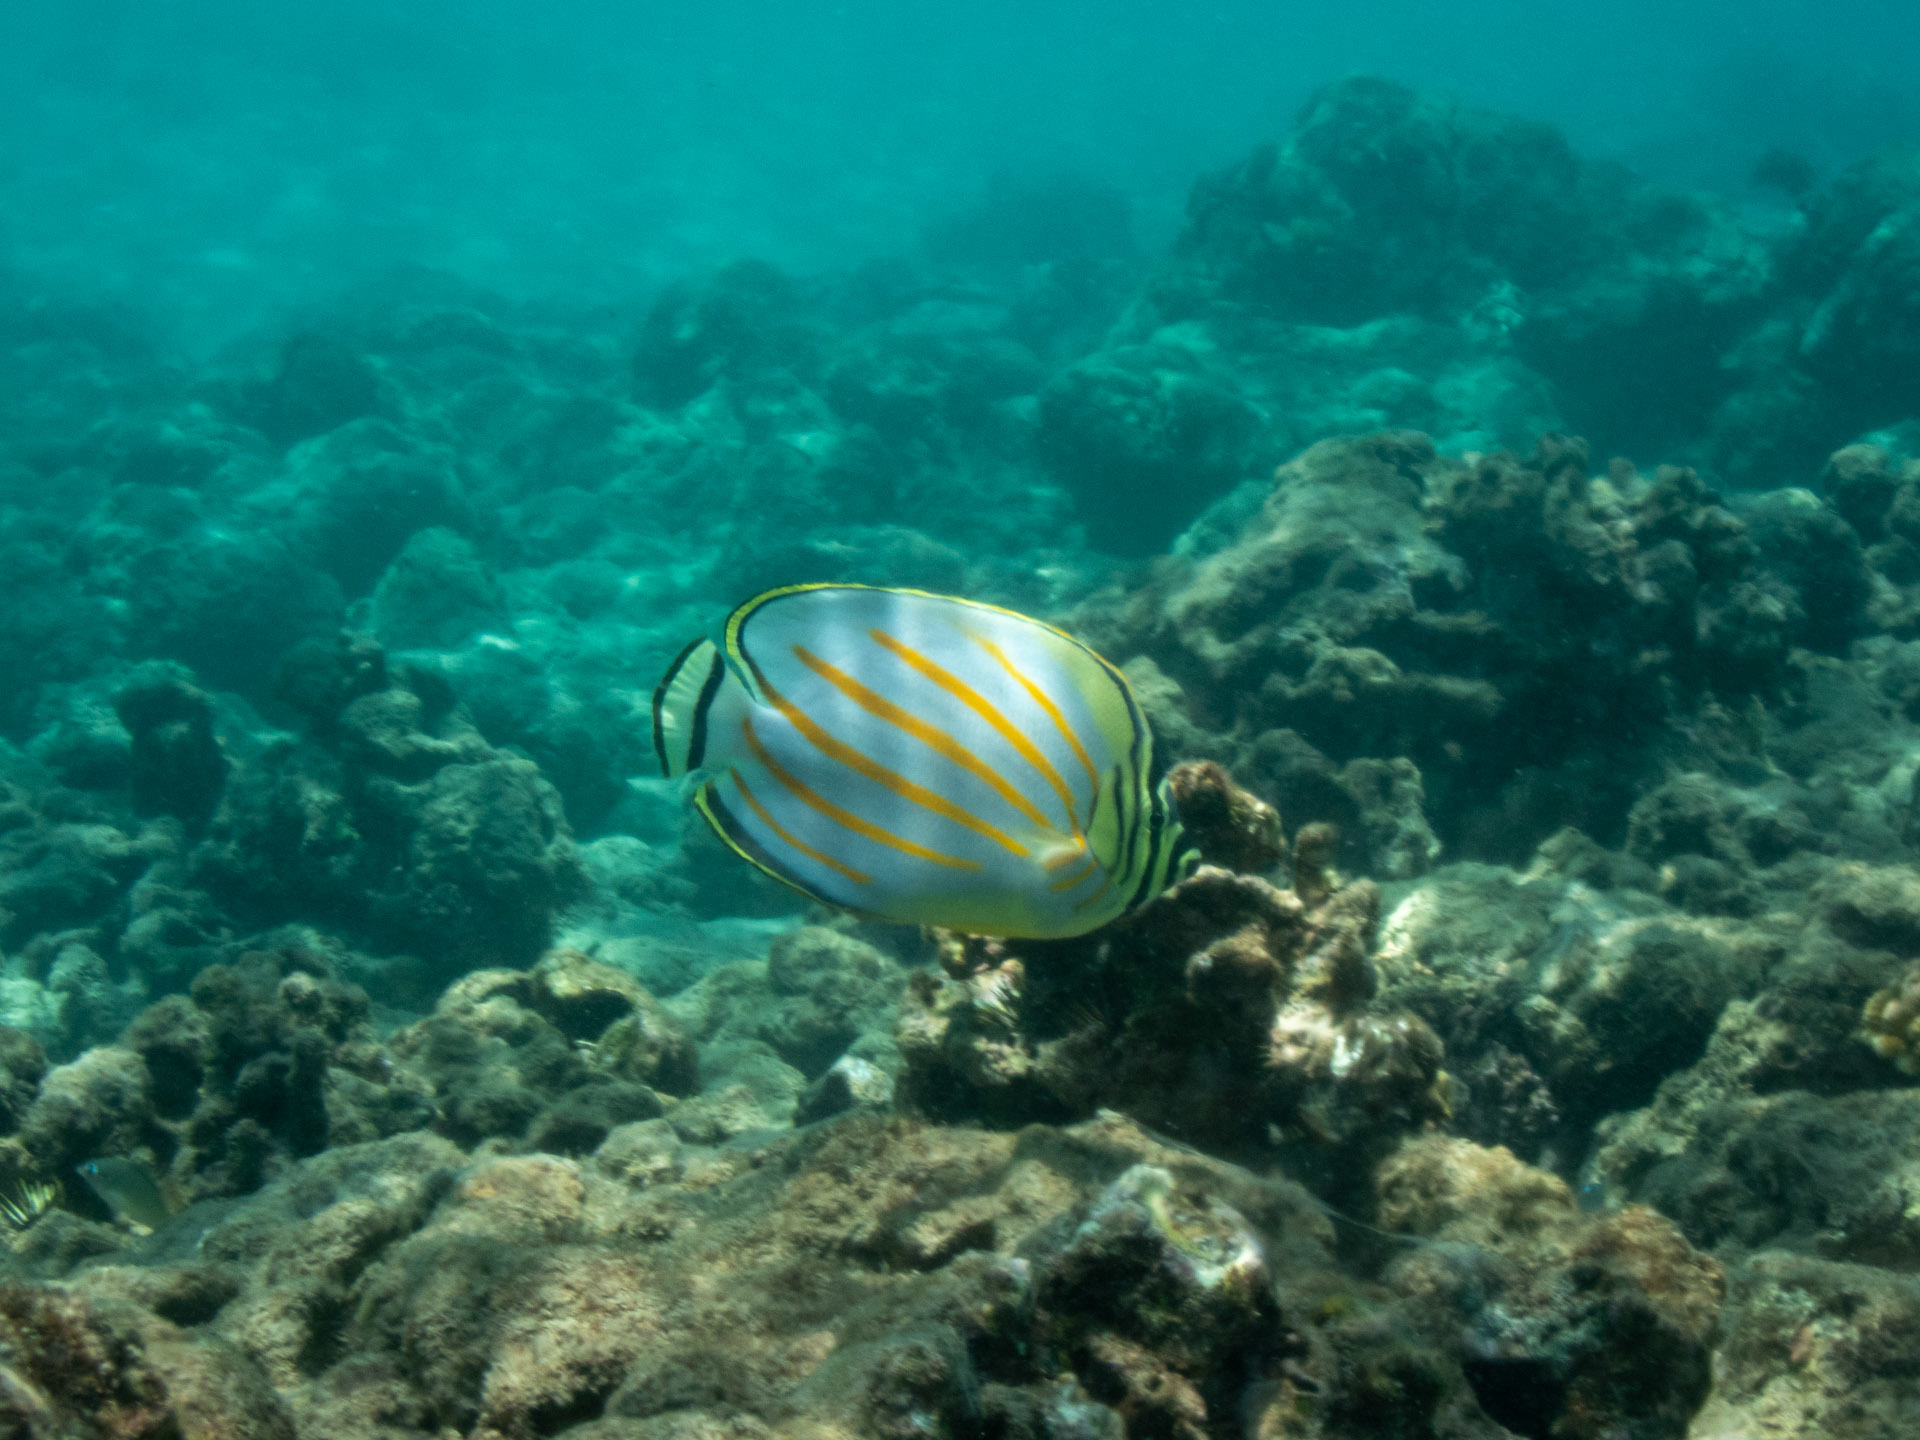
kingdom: Animalia
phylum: Chordata
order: Perciformes
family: Chaetodontidae
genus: Chaetodon
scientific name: Chaetodon ornatissimus
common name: Ornate butterflyfish
